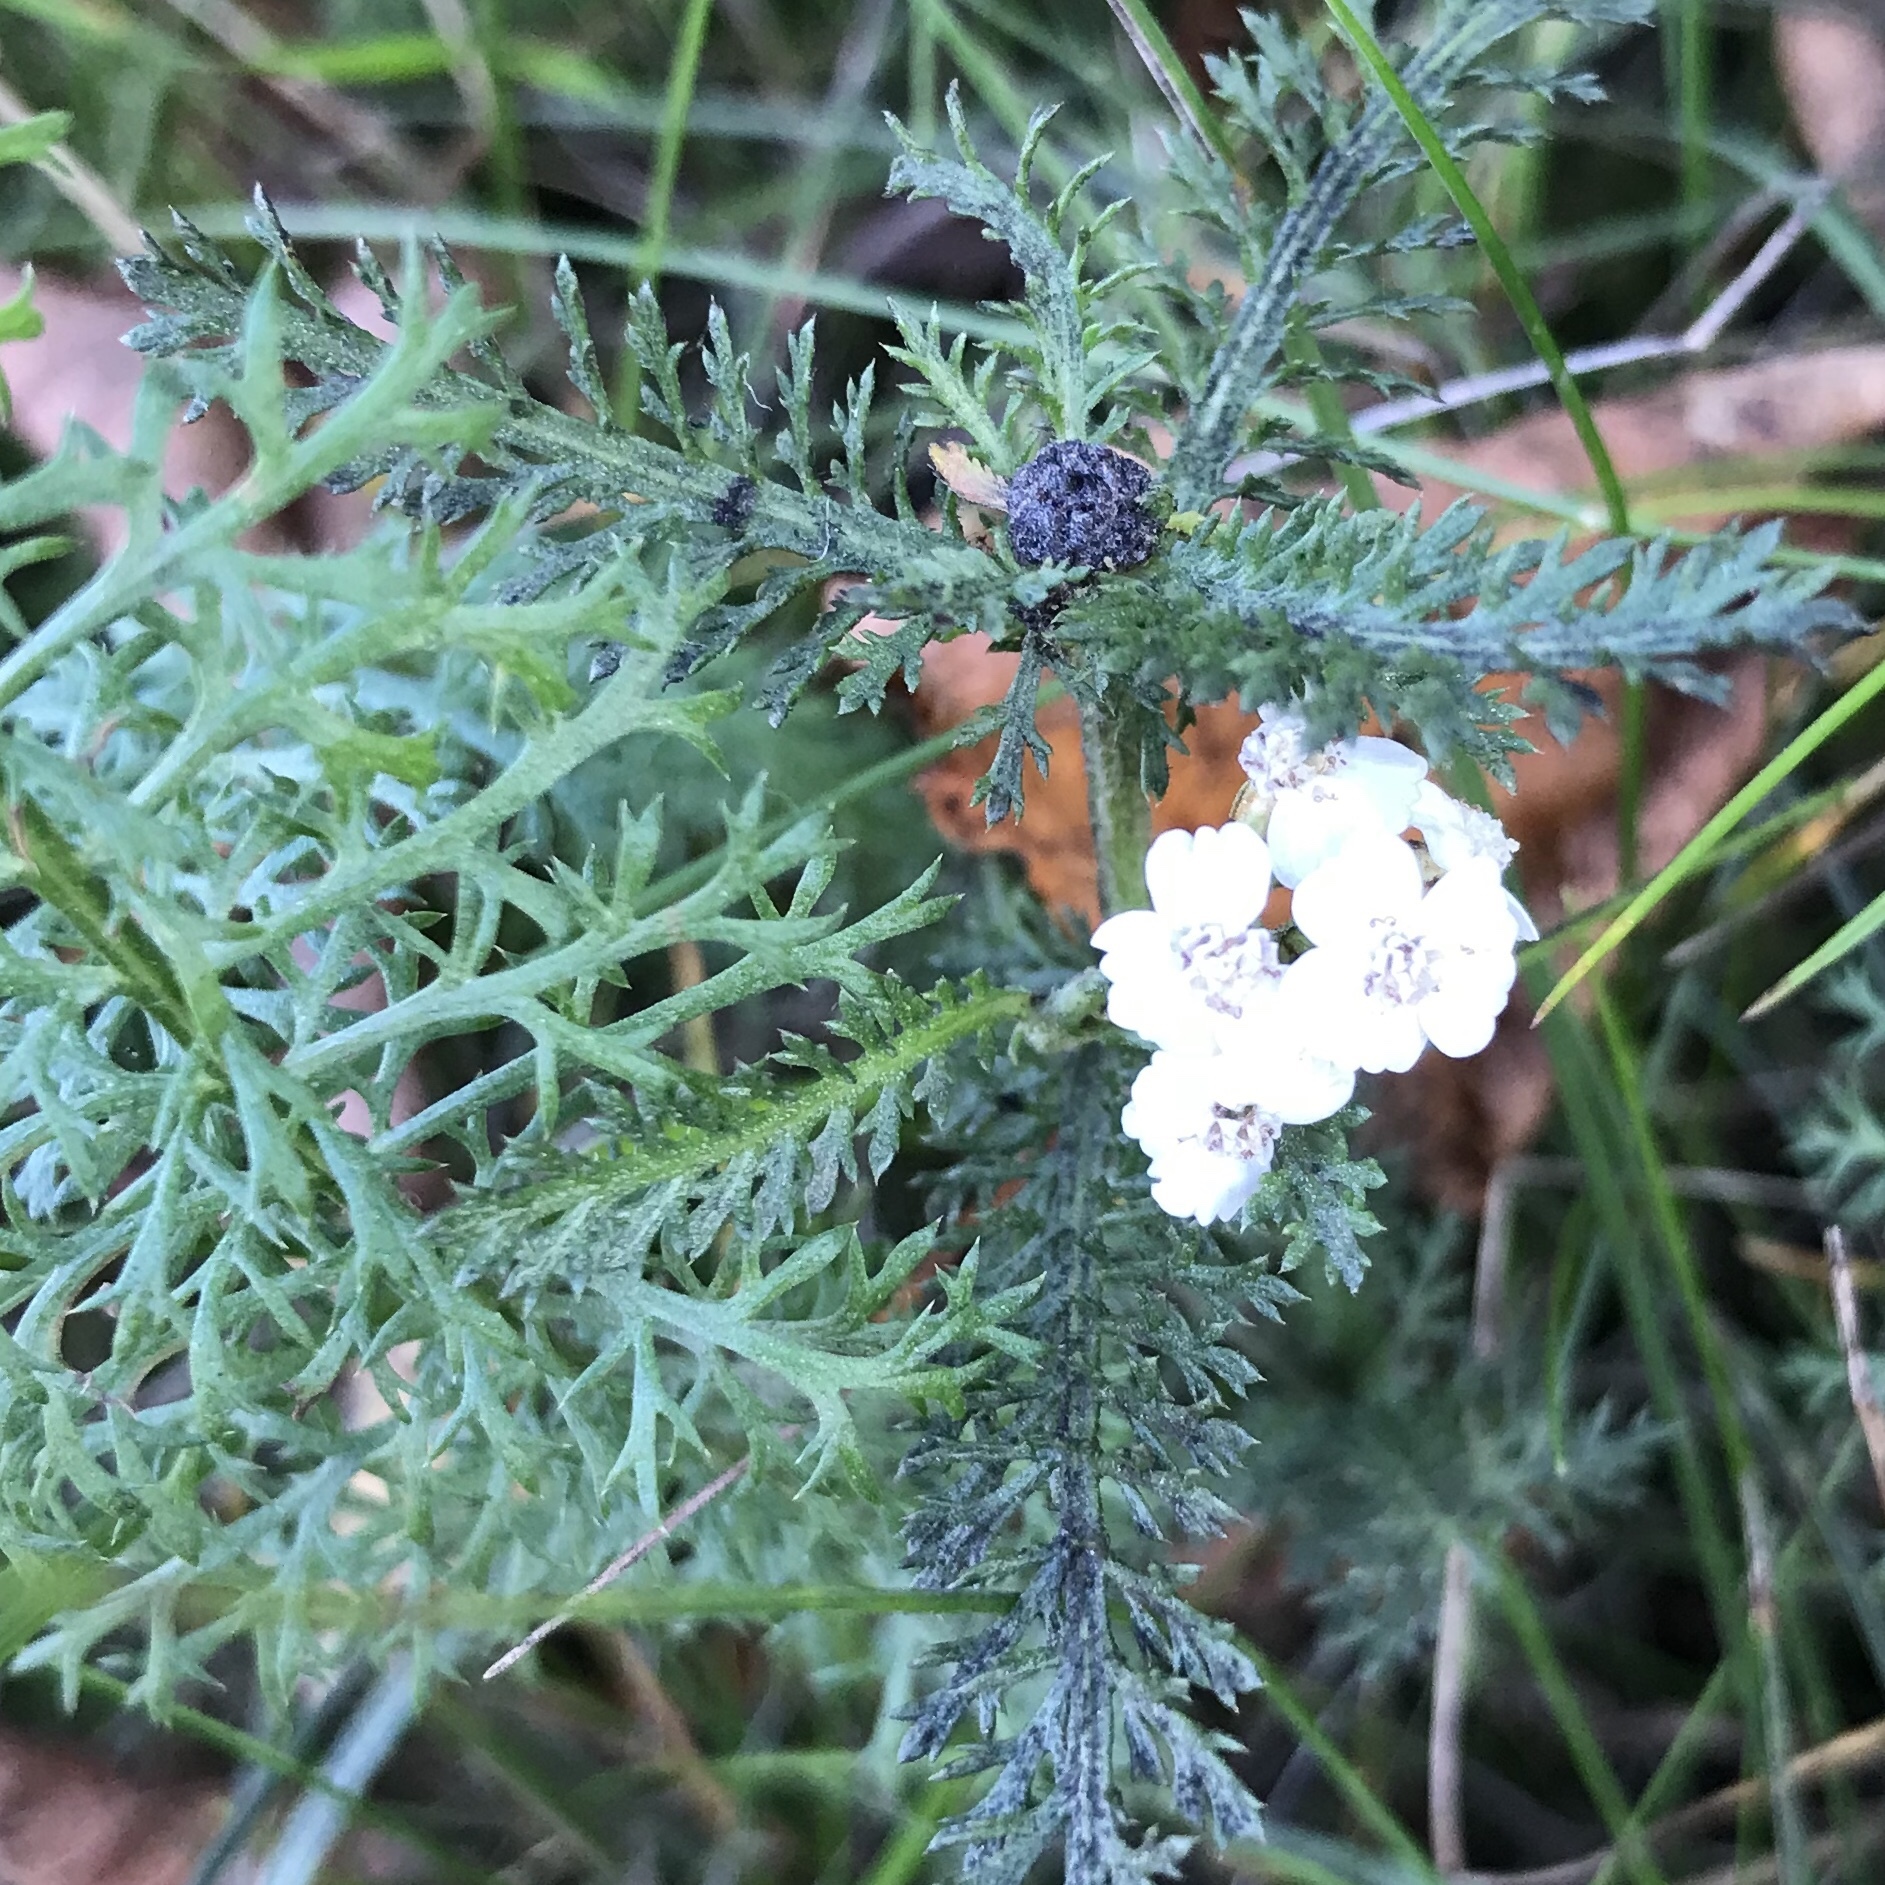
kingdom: Plantae
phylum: Tracheophyta
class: Magnoliopsida
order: Asterales
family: Asteraceae
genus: Achillea
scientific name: Achillea millefolium
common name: Yarrow
